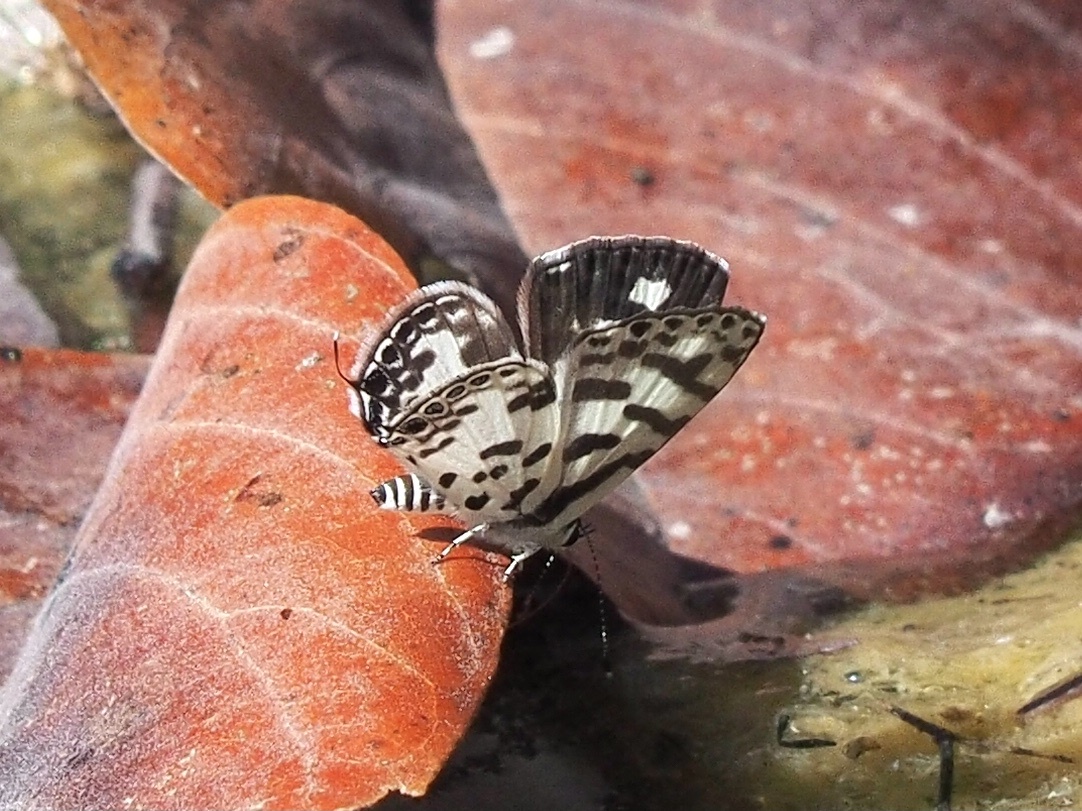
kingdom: Animalia
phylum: Arthropoda
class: Insecta
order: Lepidoptera
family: Lycaenidae
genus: Castalius
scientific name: Castalius melaena
